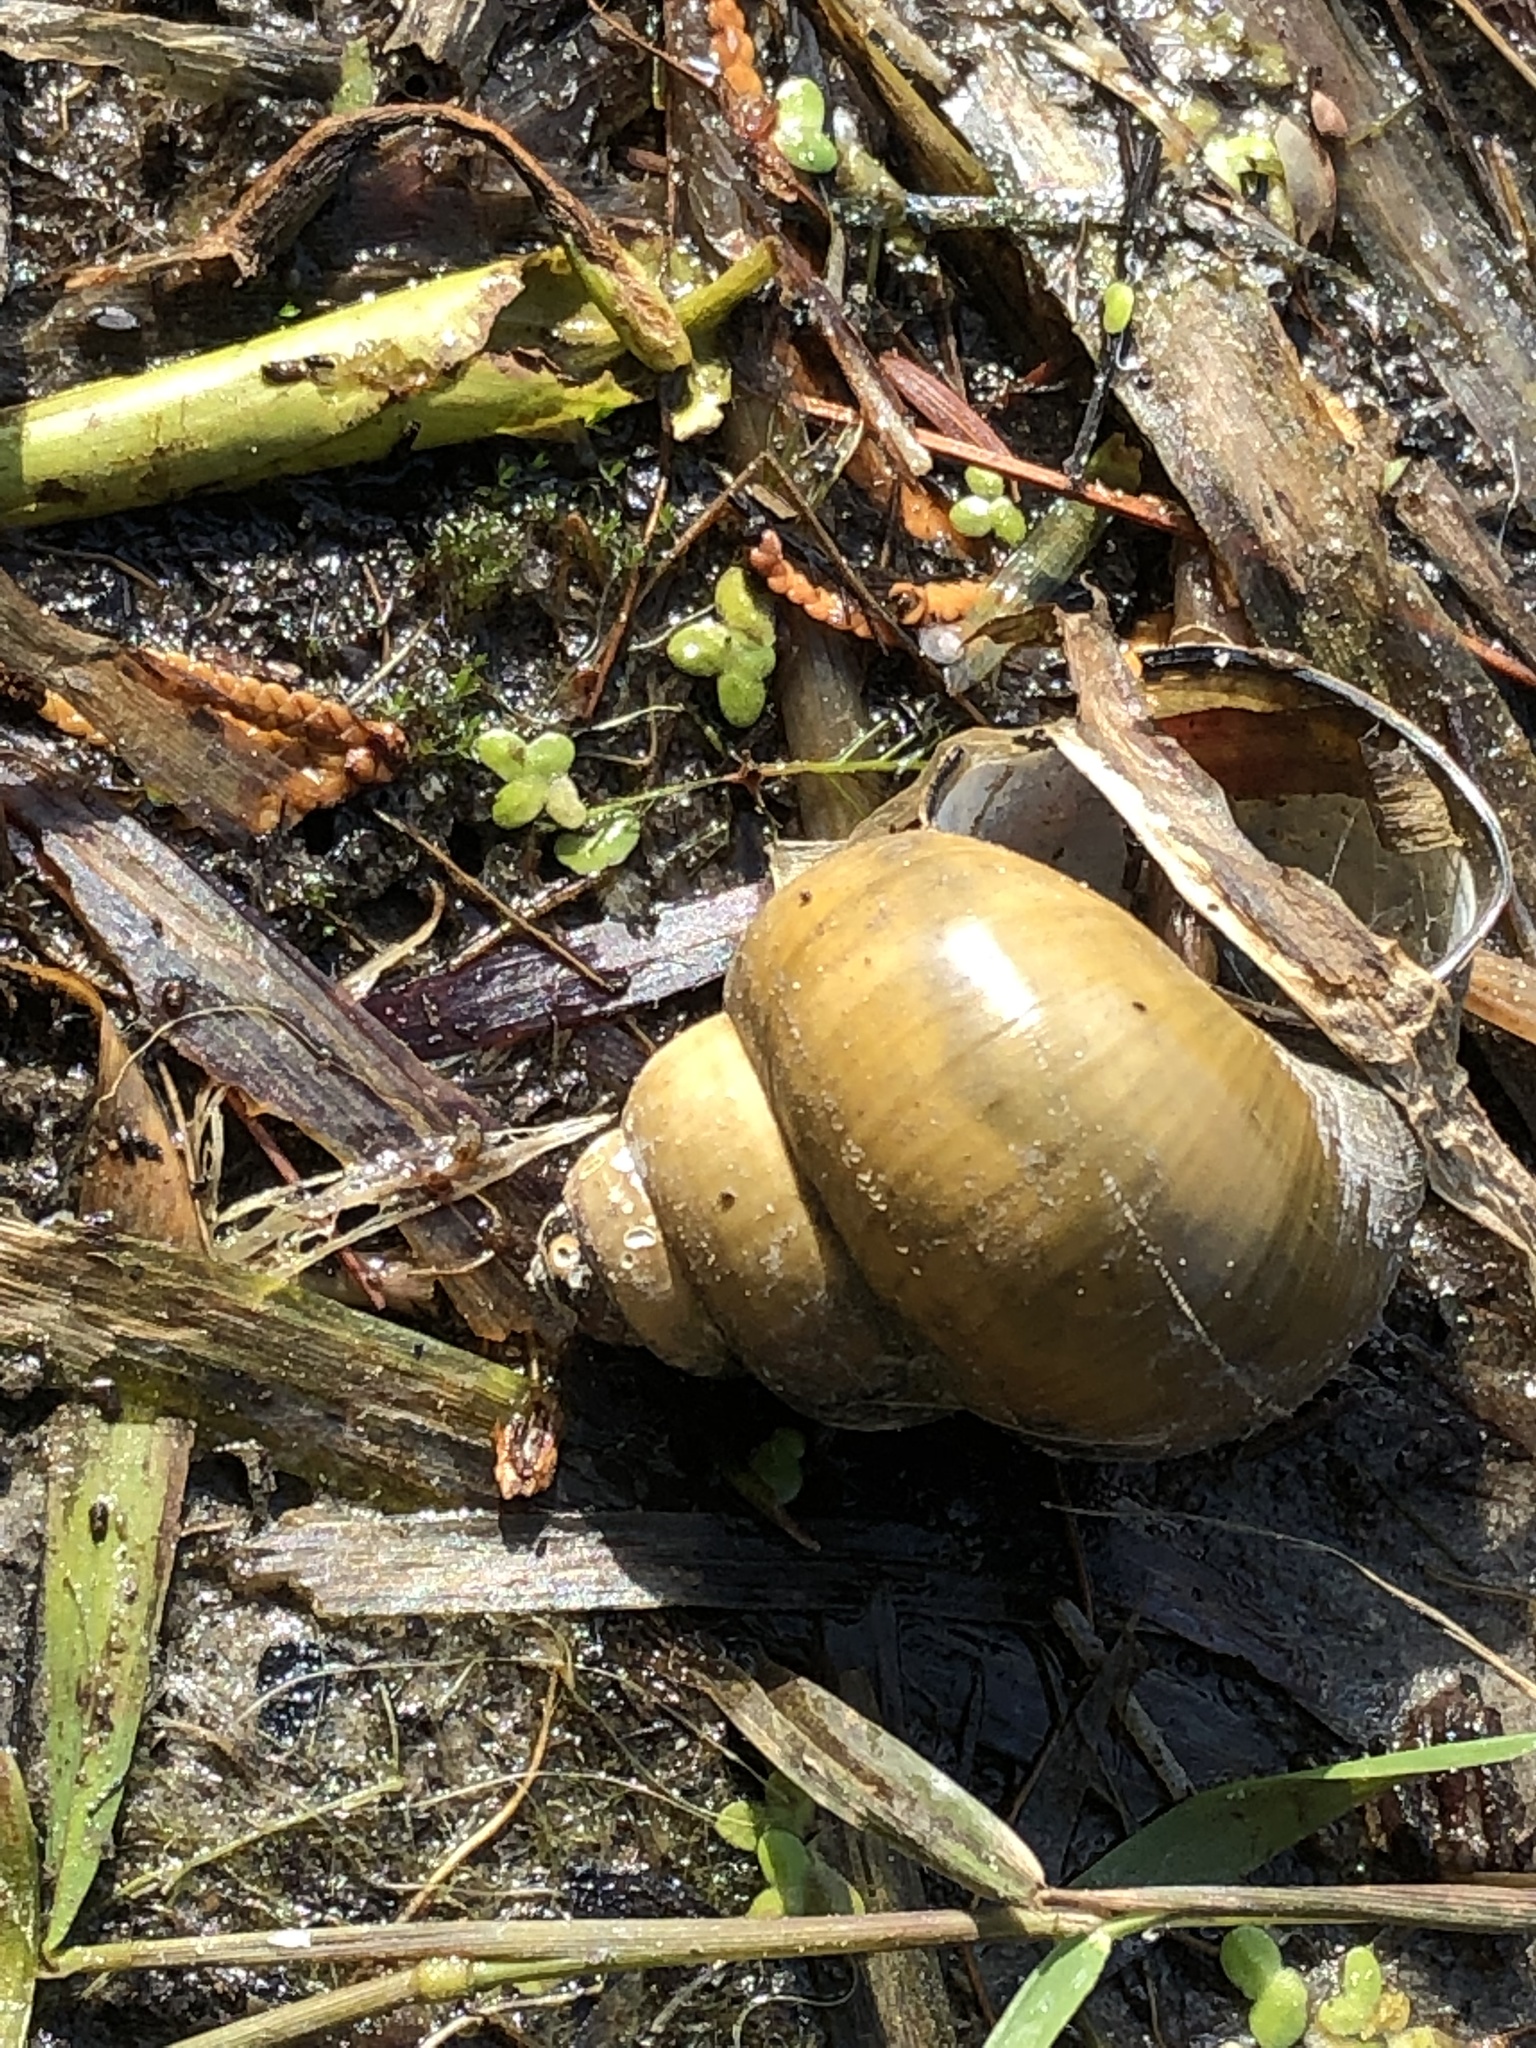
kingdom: Animalia
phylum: Mollusca
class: Gastropoda
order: Architaenioglossa
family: Viviparidae
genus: Cipangopaludina
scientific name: Cipangopaludina chinensis
